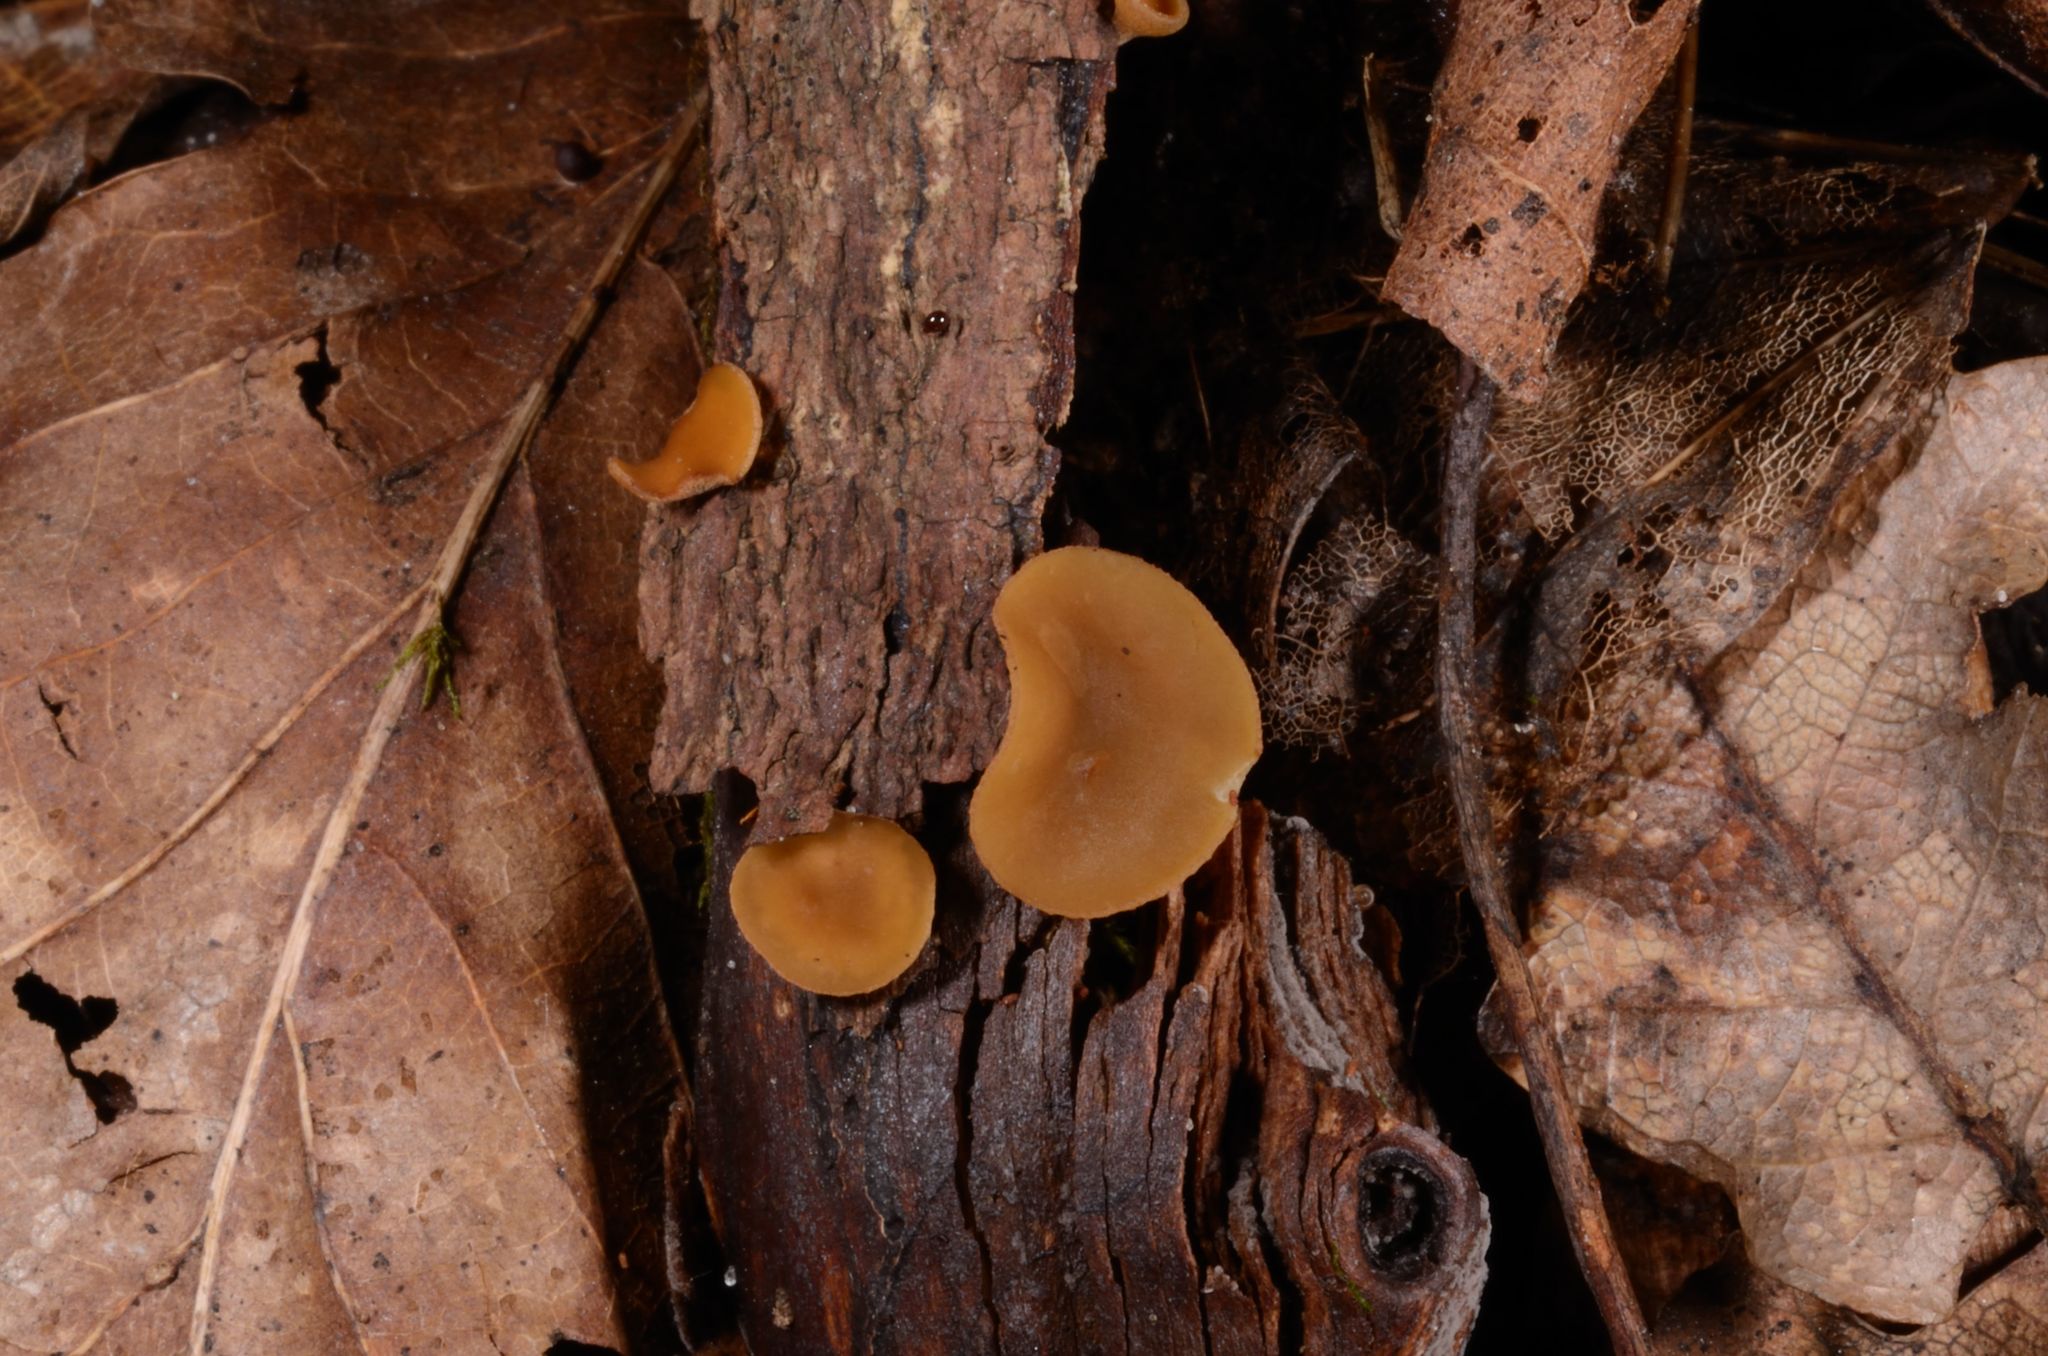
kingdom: Fungi
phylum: Ascomycota
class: Leotiomycetes
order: Helotiales
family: Rutstroemiaceae
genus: Rutstroemia
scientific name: Rutstroemia firma
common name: Brown cup
